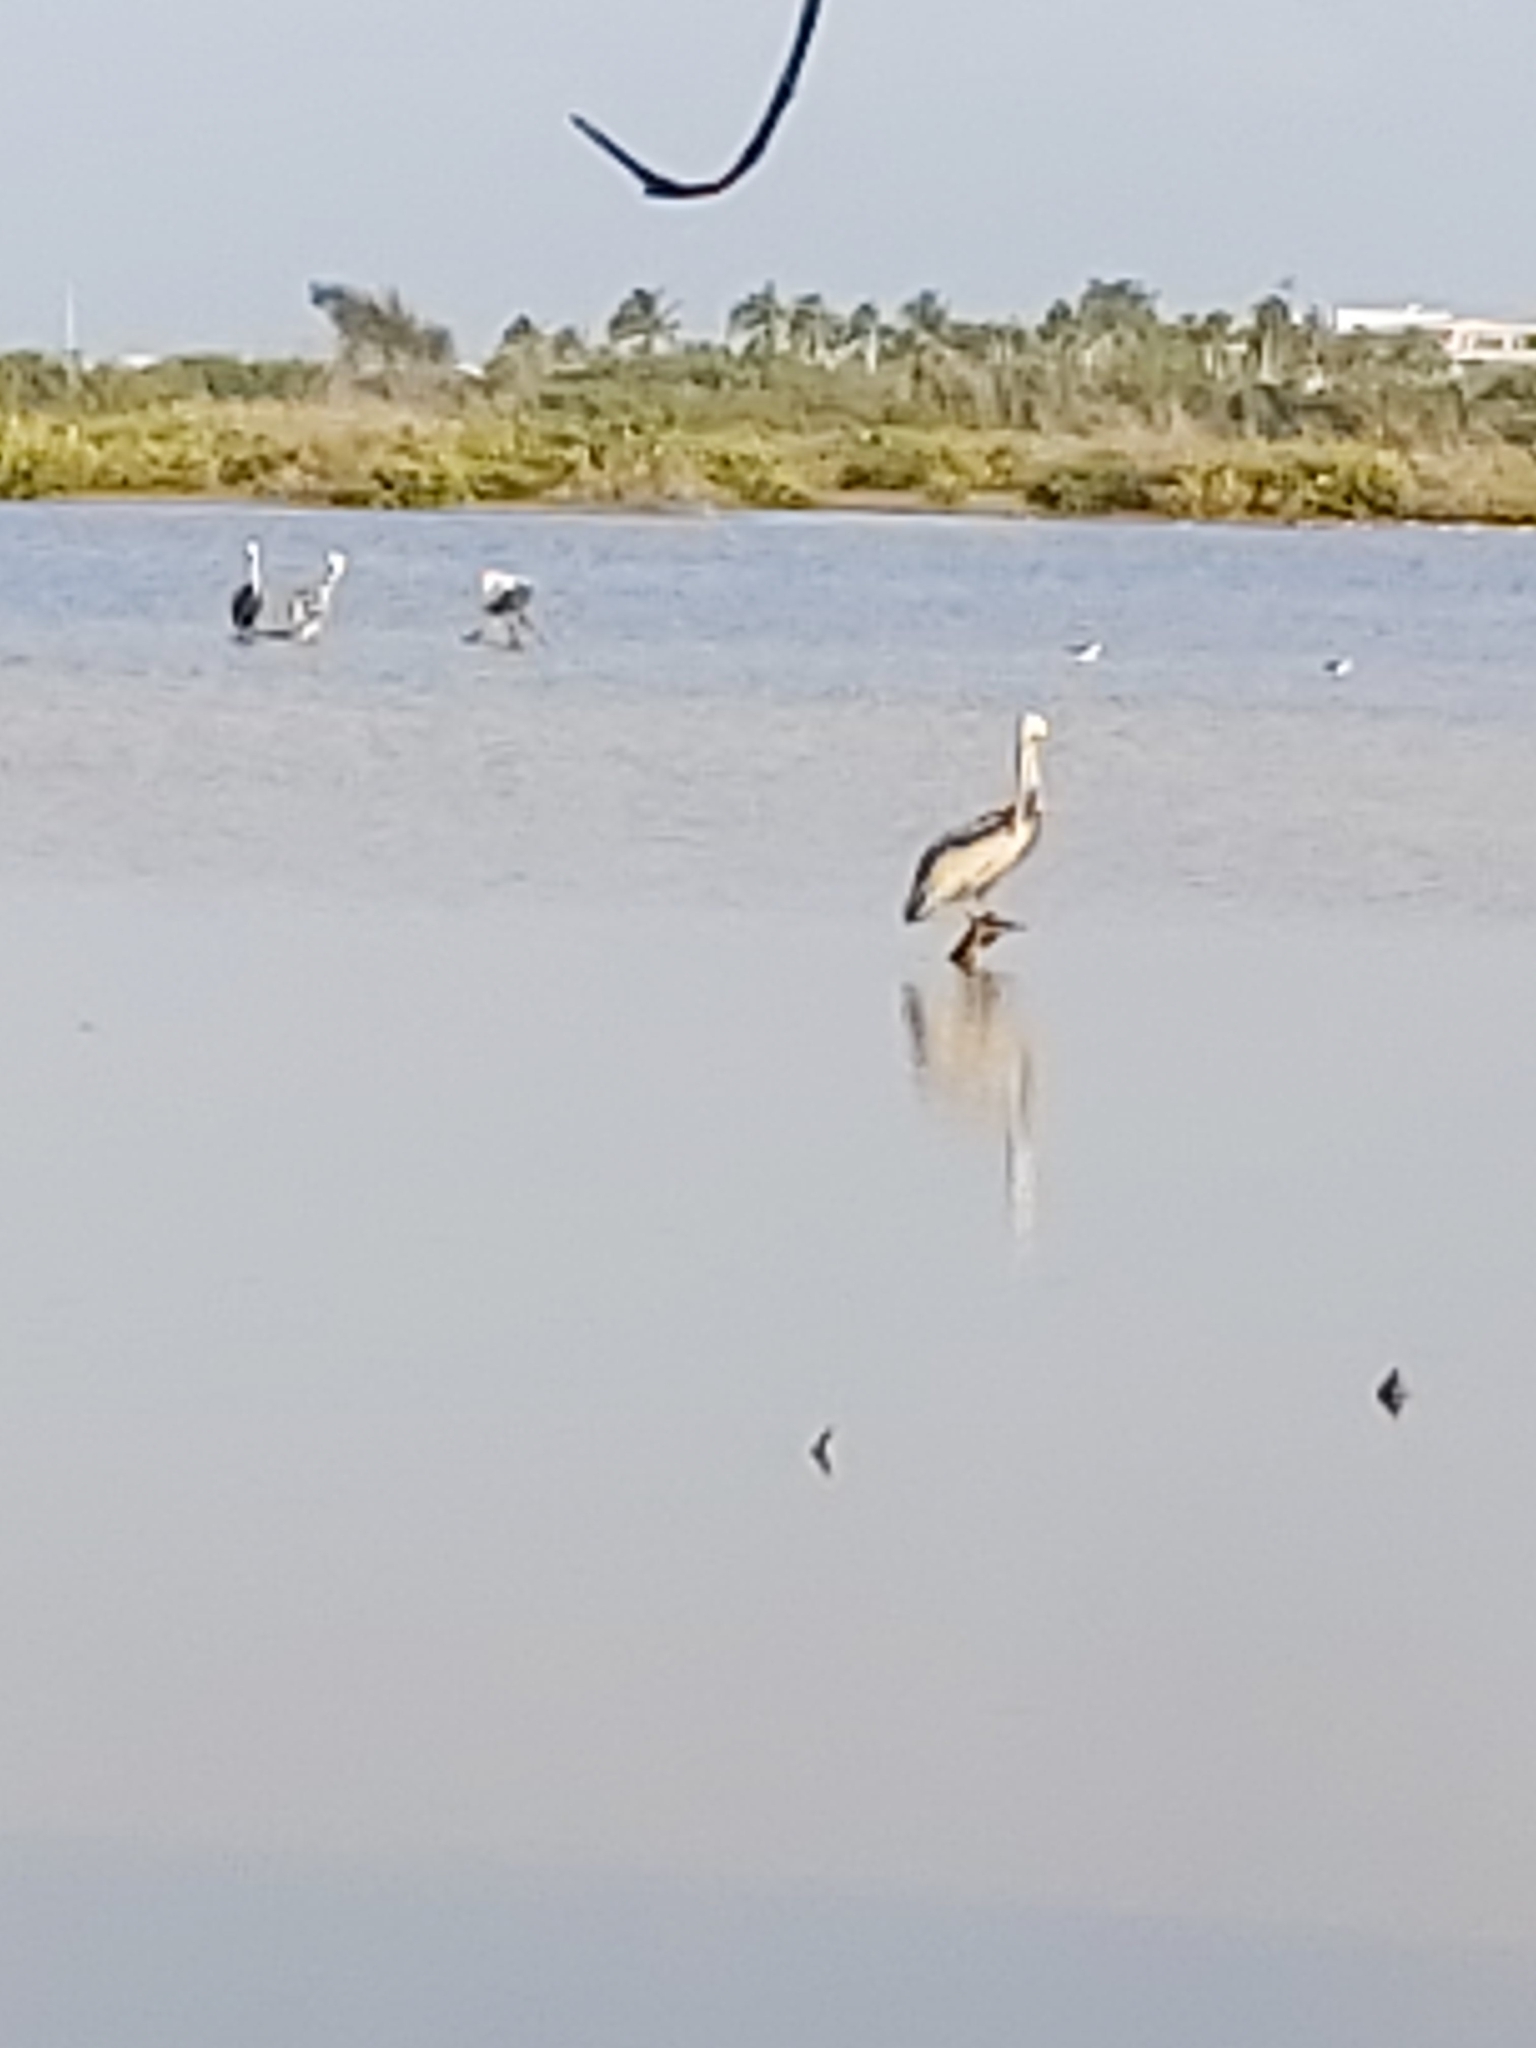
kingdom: Animalia
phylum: Chordata
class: Aves
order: Pelecaniformes
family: Pelecanidae
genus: Pelecanus
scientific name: Pelecanus occidentalis
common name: Brown pelican
